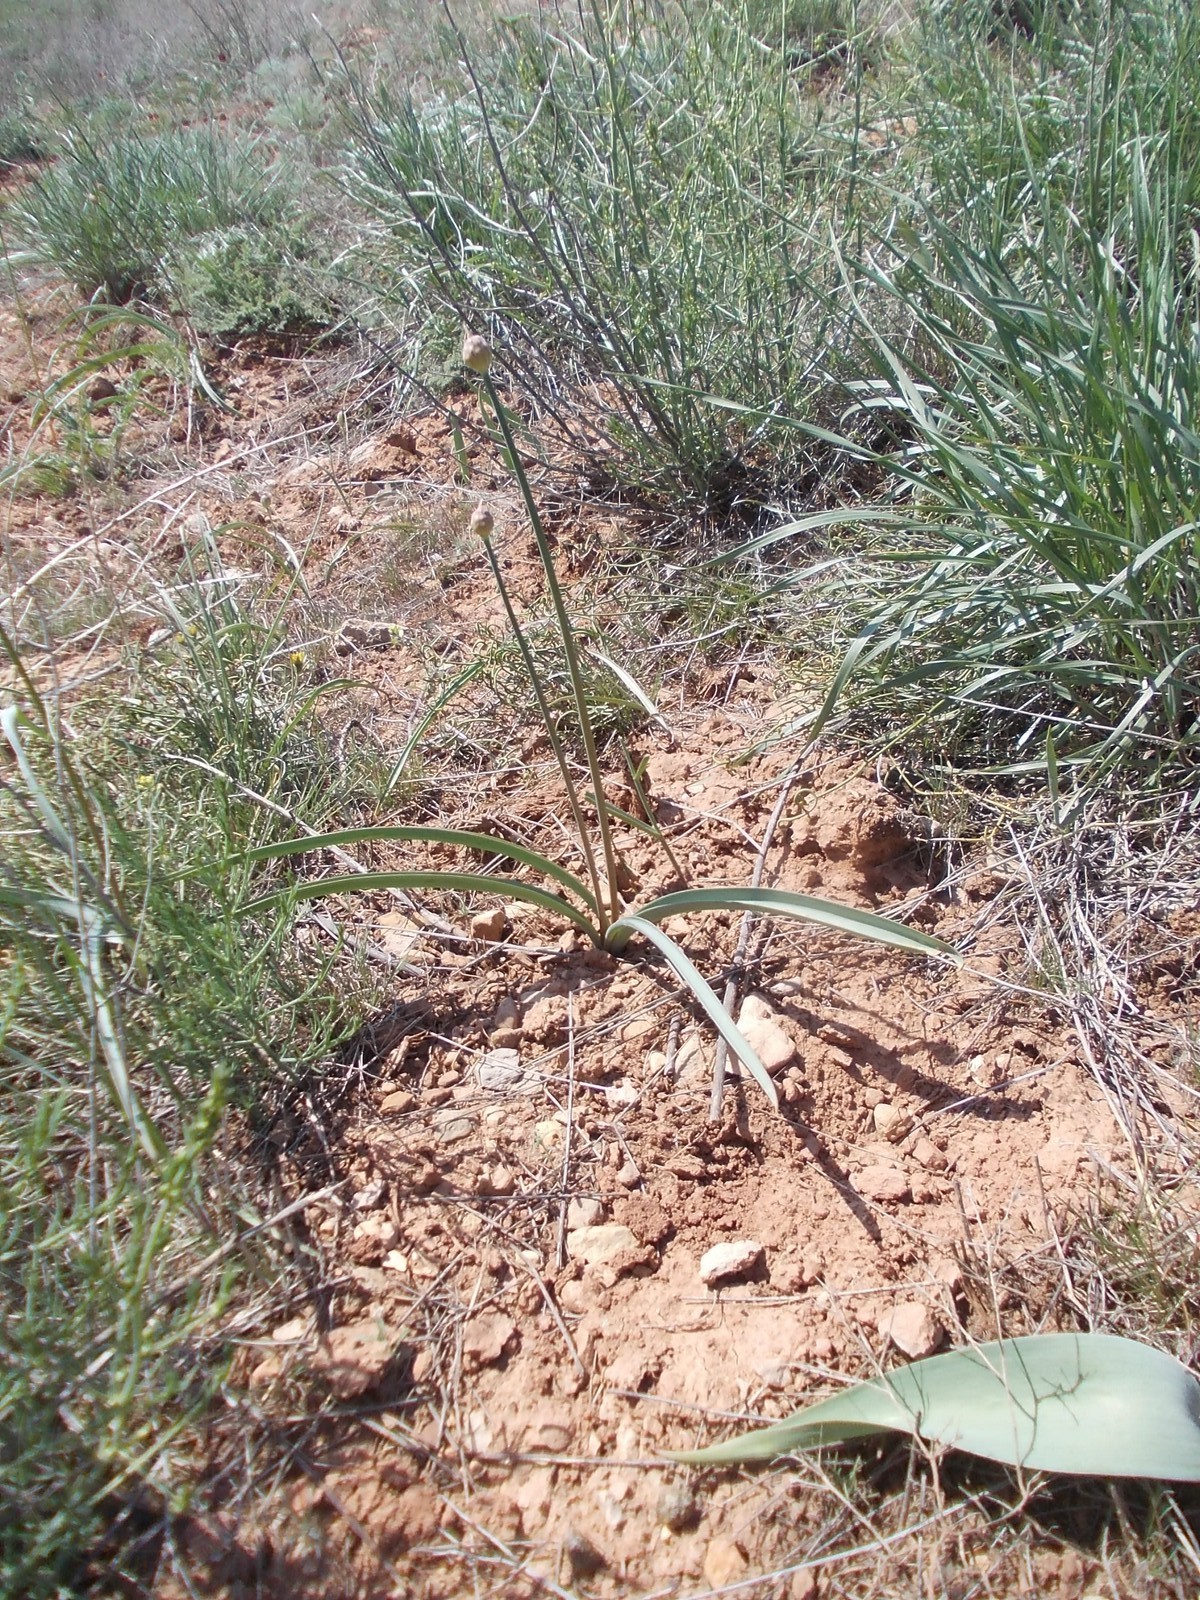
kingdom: Plantae
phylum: Tracheophyta
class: Liliopsida
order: Asparagales
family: Amaryllidaceae
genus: Allium
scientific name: Allium tulipifolium
